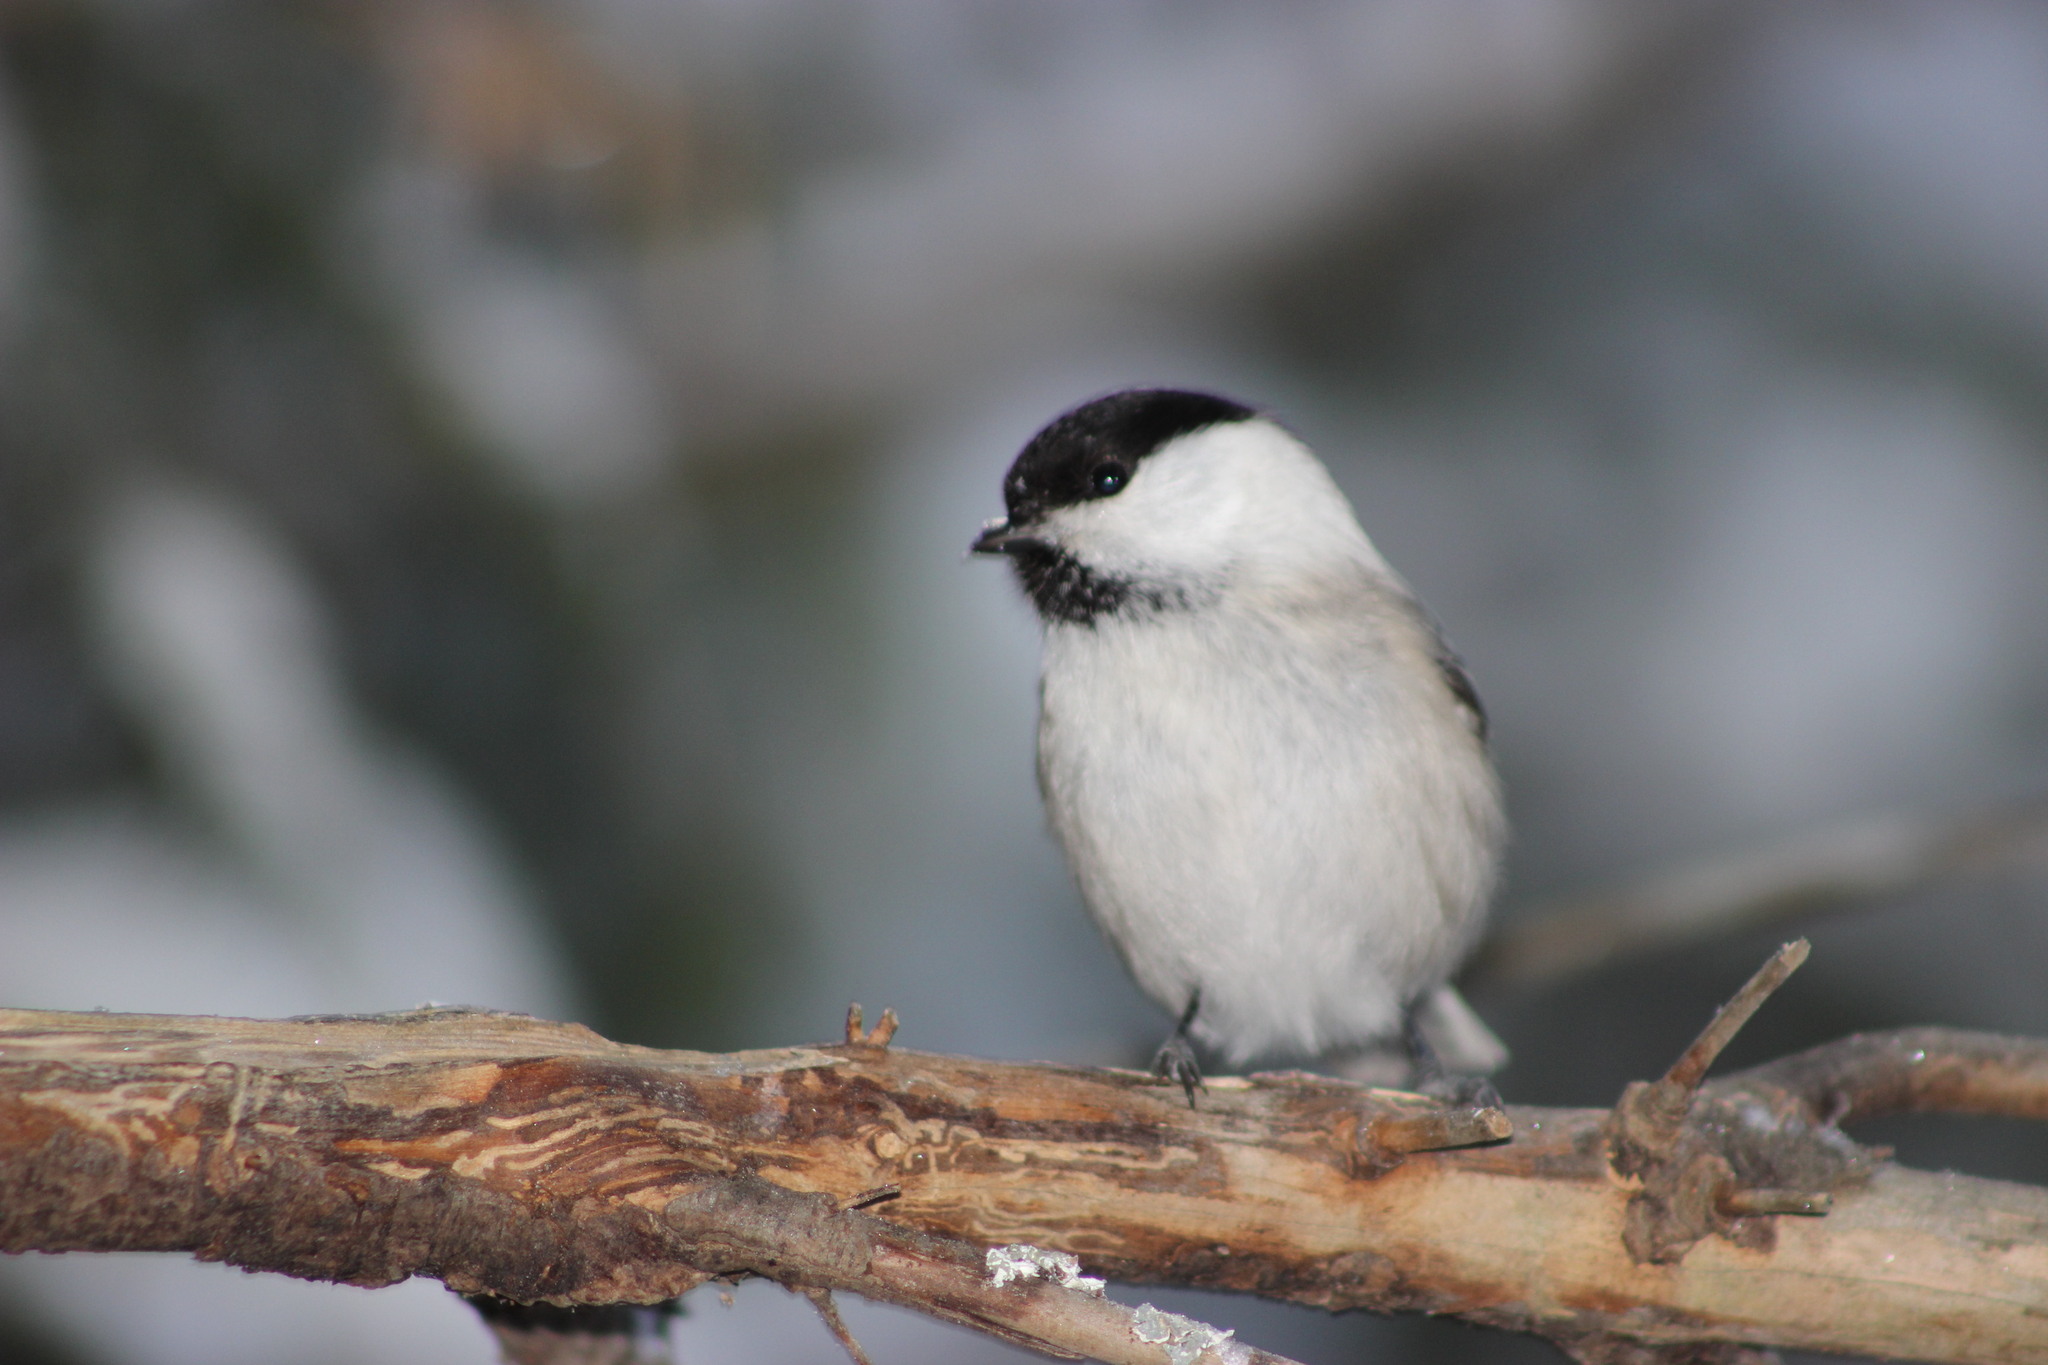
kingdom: Animalia
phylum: Chordata
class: Aves
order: Passeriformes
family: Paridae
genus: Poecile
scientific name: Poecile montanus
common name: Willow tit
